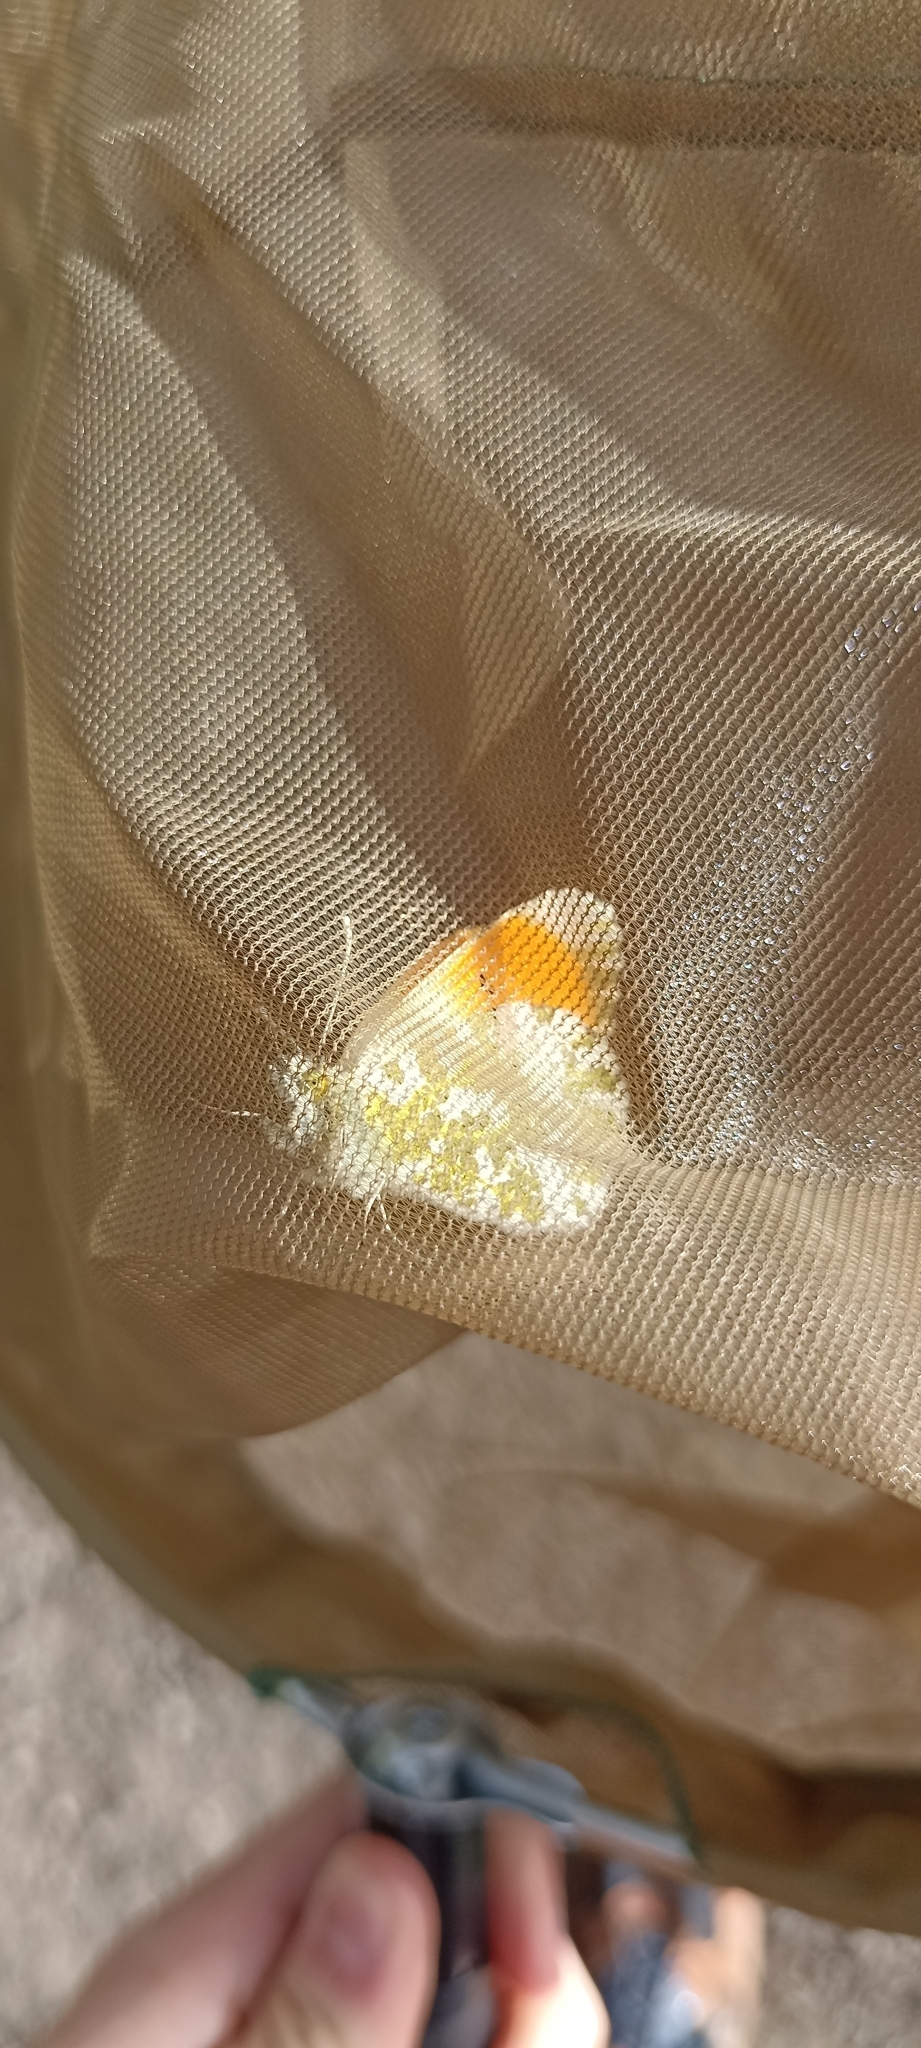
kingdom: Animalia
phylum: Arthropoda
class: Insecta
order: Lepidoptera
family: Pieridae
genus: Anthocharis
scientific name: Anthocharis cardamines
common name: Orange-tip
